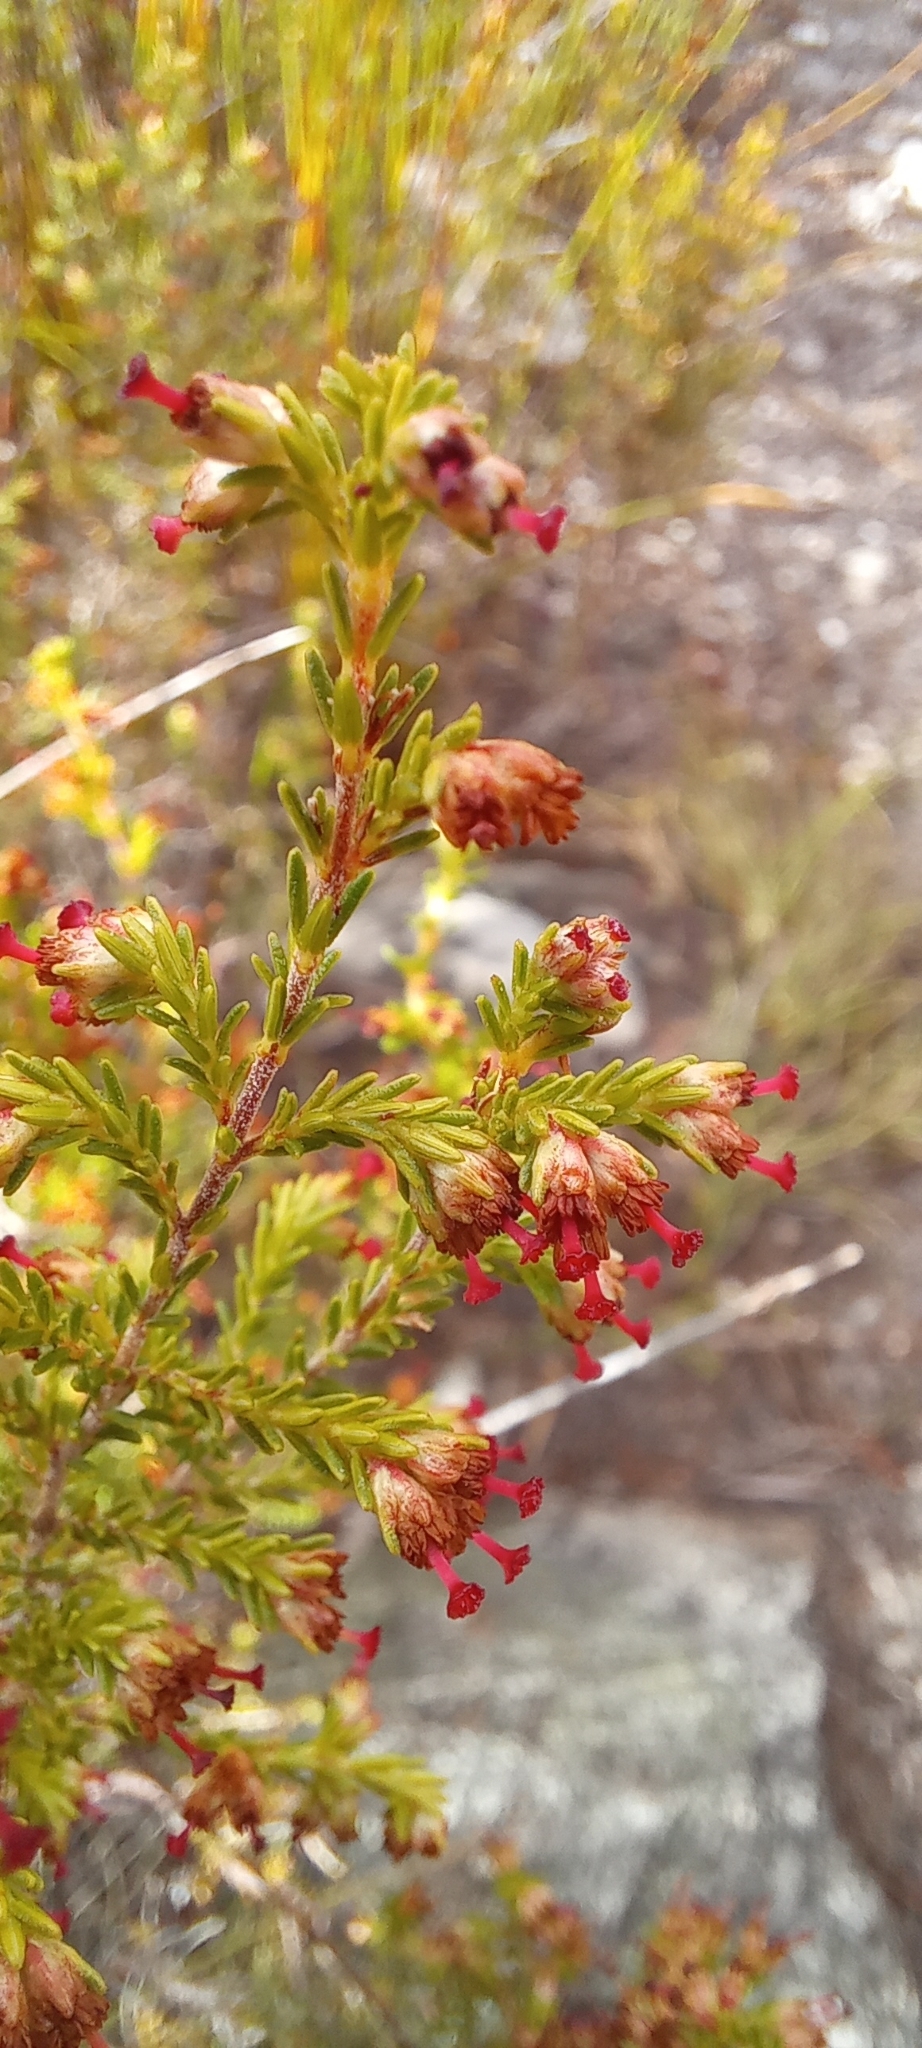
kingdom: Plantae
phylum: Tracheophyta
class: Magnoliopsida
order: Ericales
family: Ericaceae
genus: Erica
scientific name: Erica lasciva
